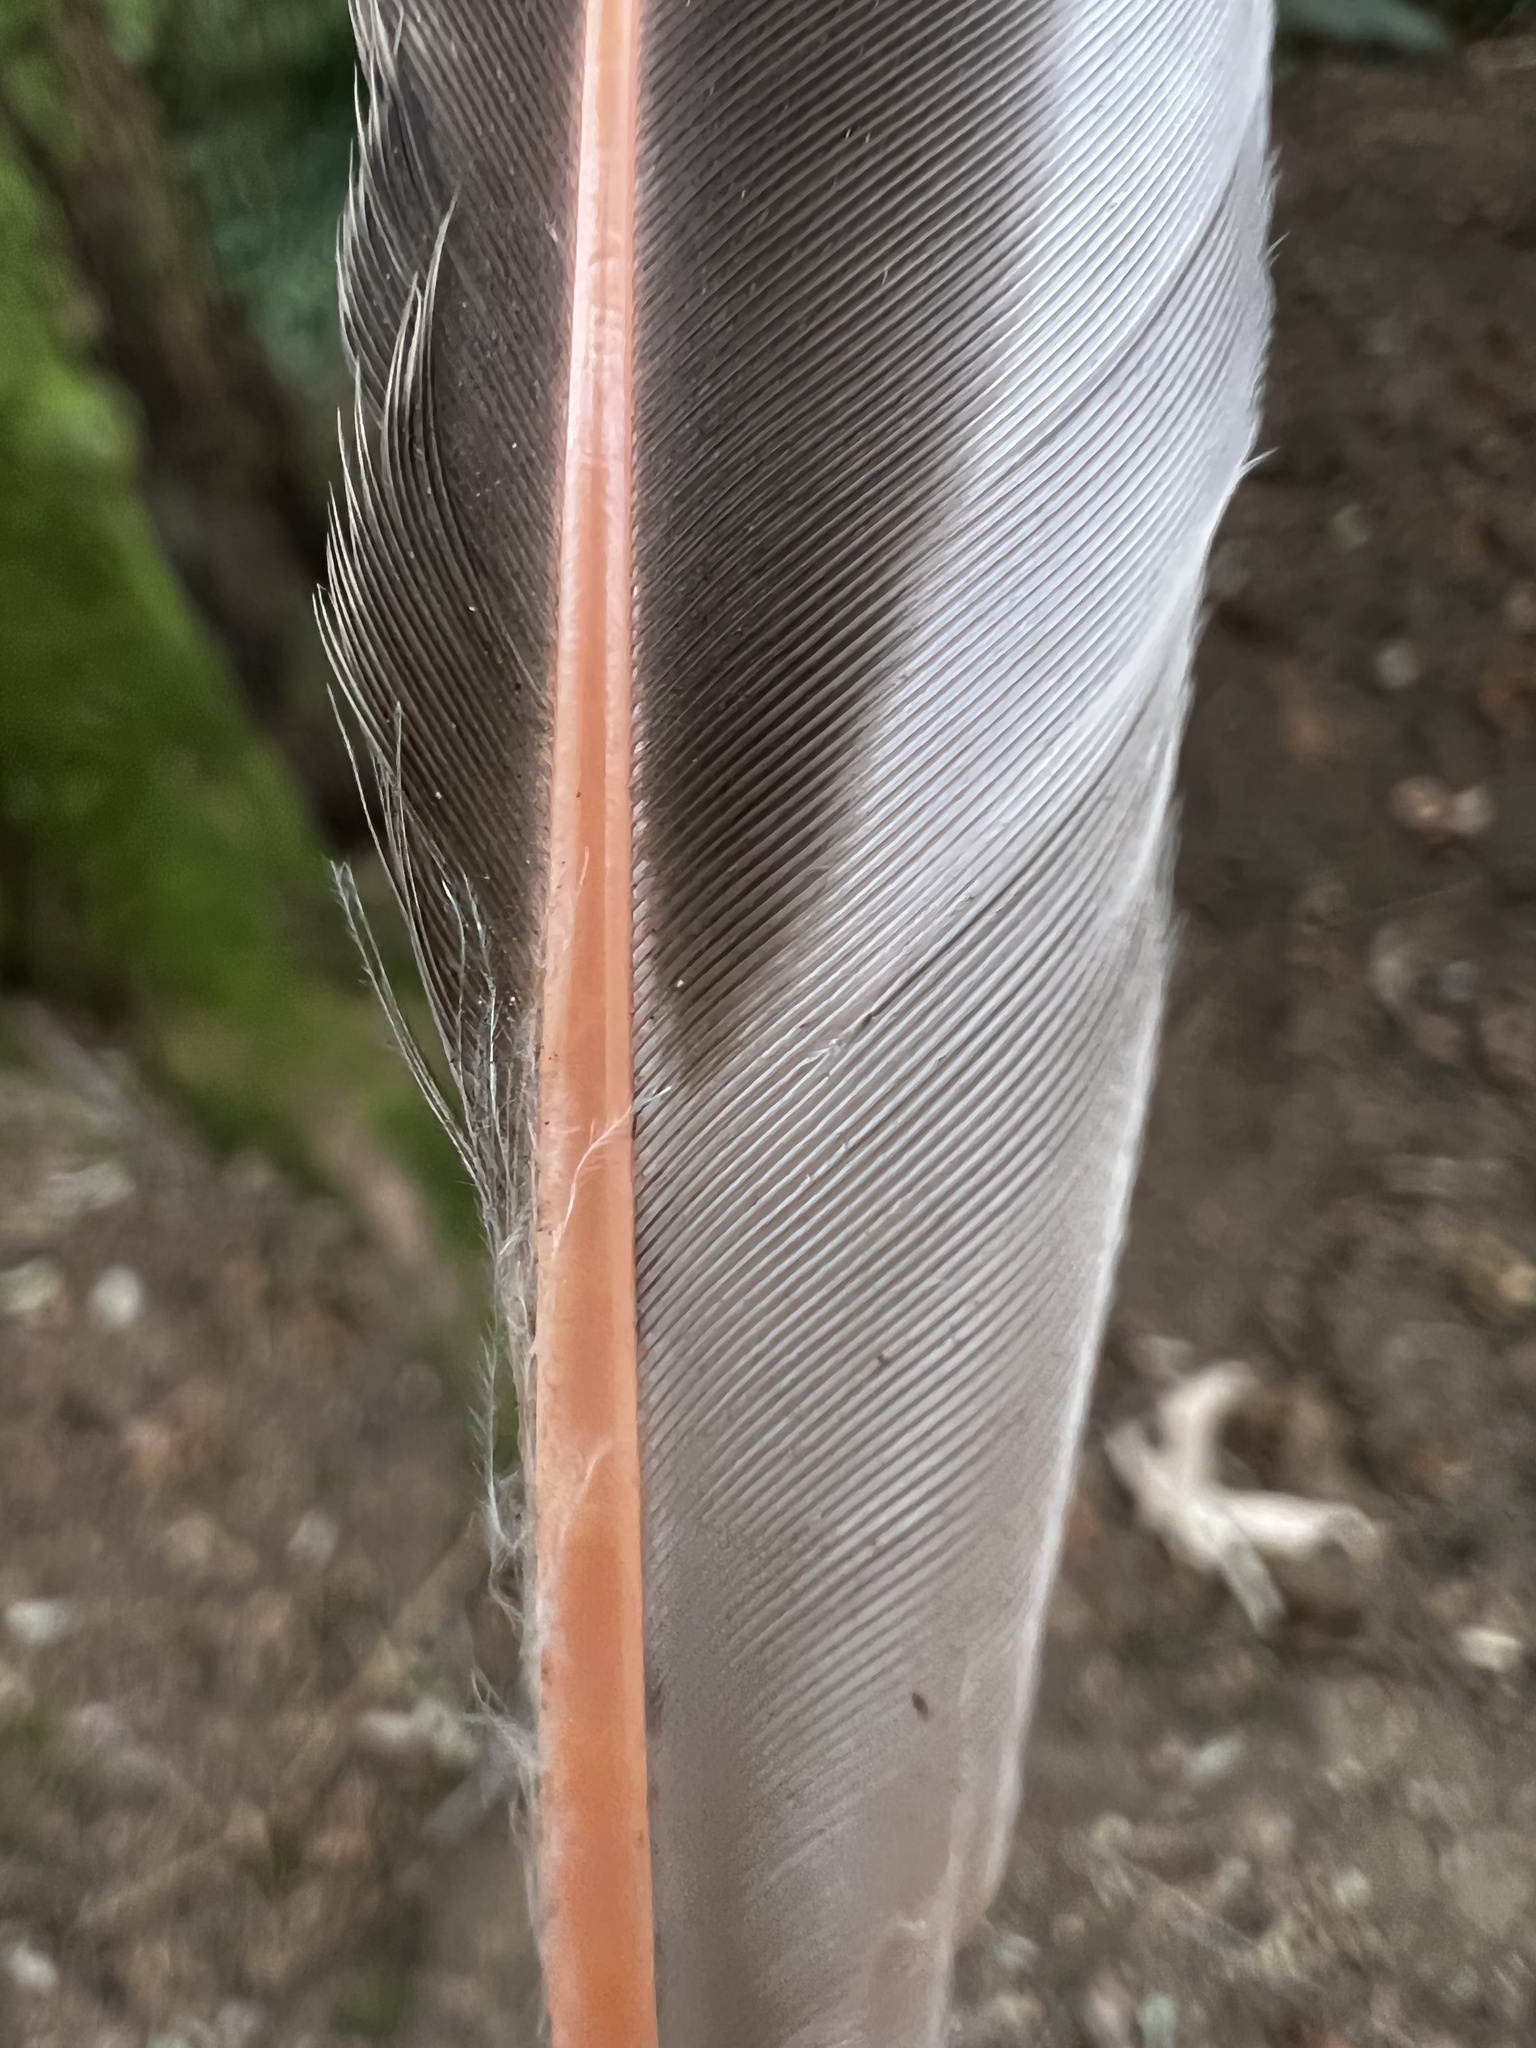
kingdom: Animalia
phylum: Chordata
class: Aves
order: Piciformes
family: Picidae
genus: Colaptes
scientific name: Colaptes auratus
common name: Northern flicker
